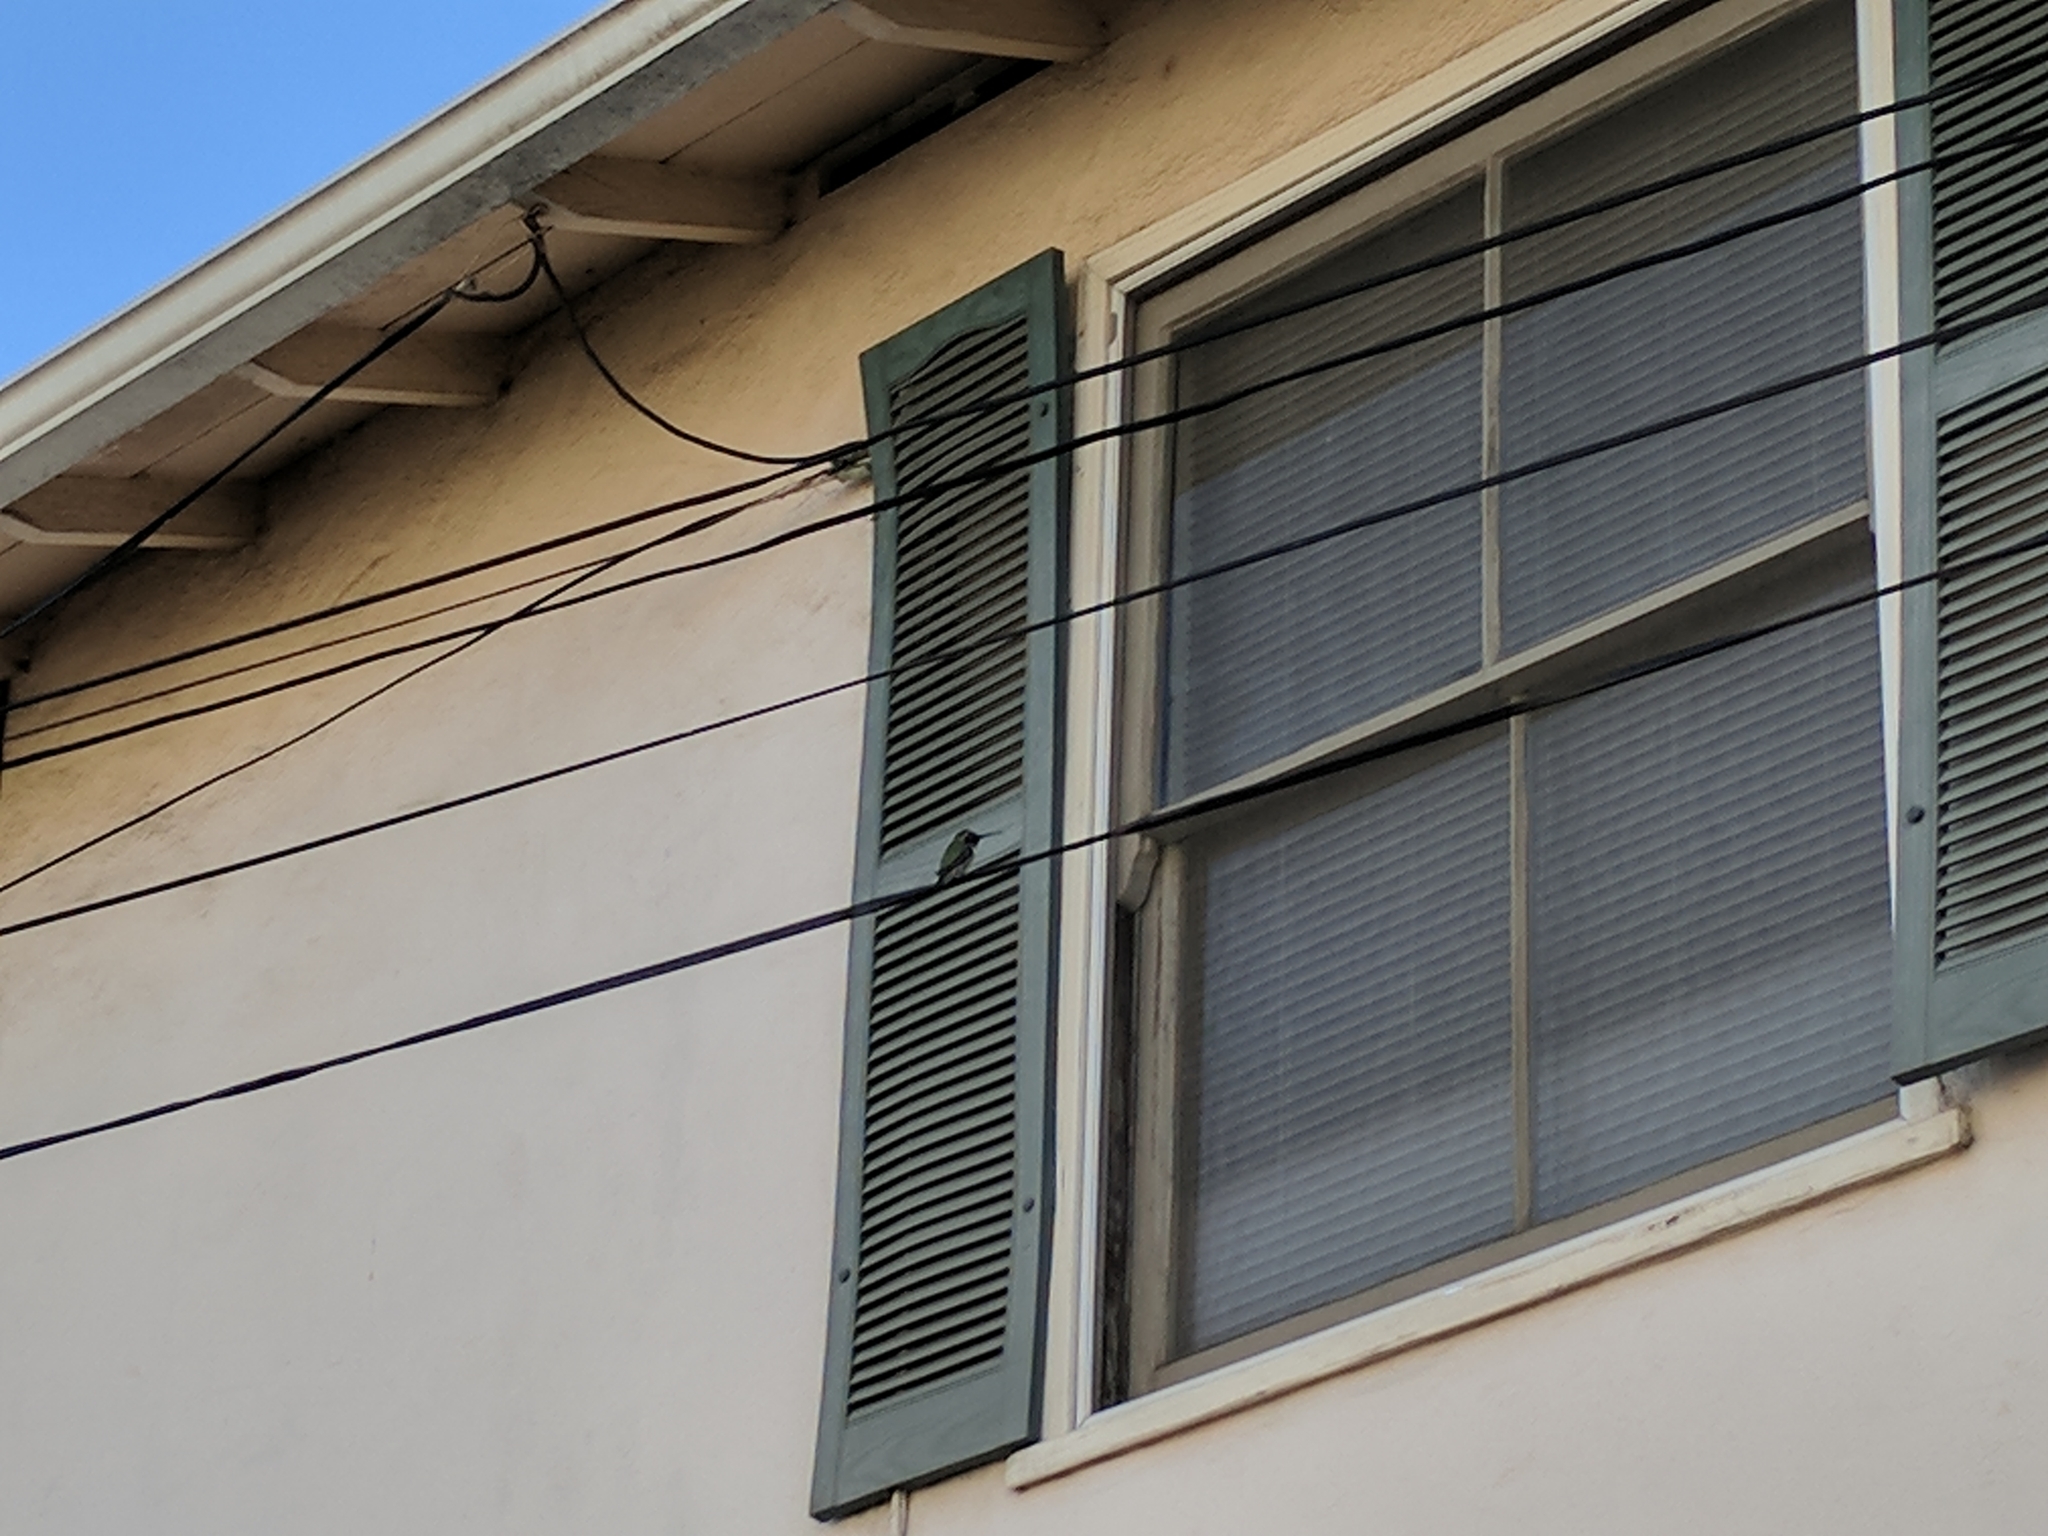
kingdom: Animalia
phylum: Chordata
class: Aves
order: Apodiformes
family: Trochilidae
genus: Calypte
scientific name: Calypte anna
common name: Anna's hummingbird
